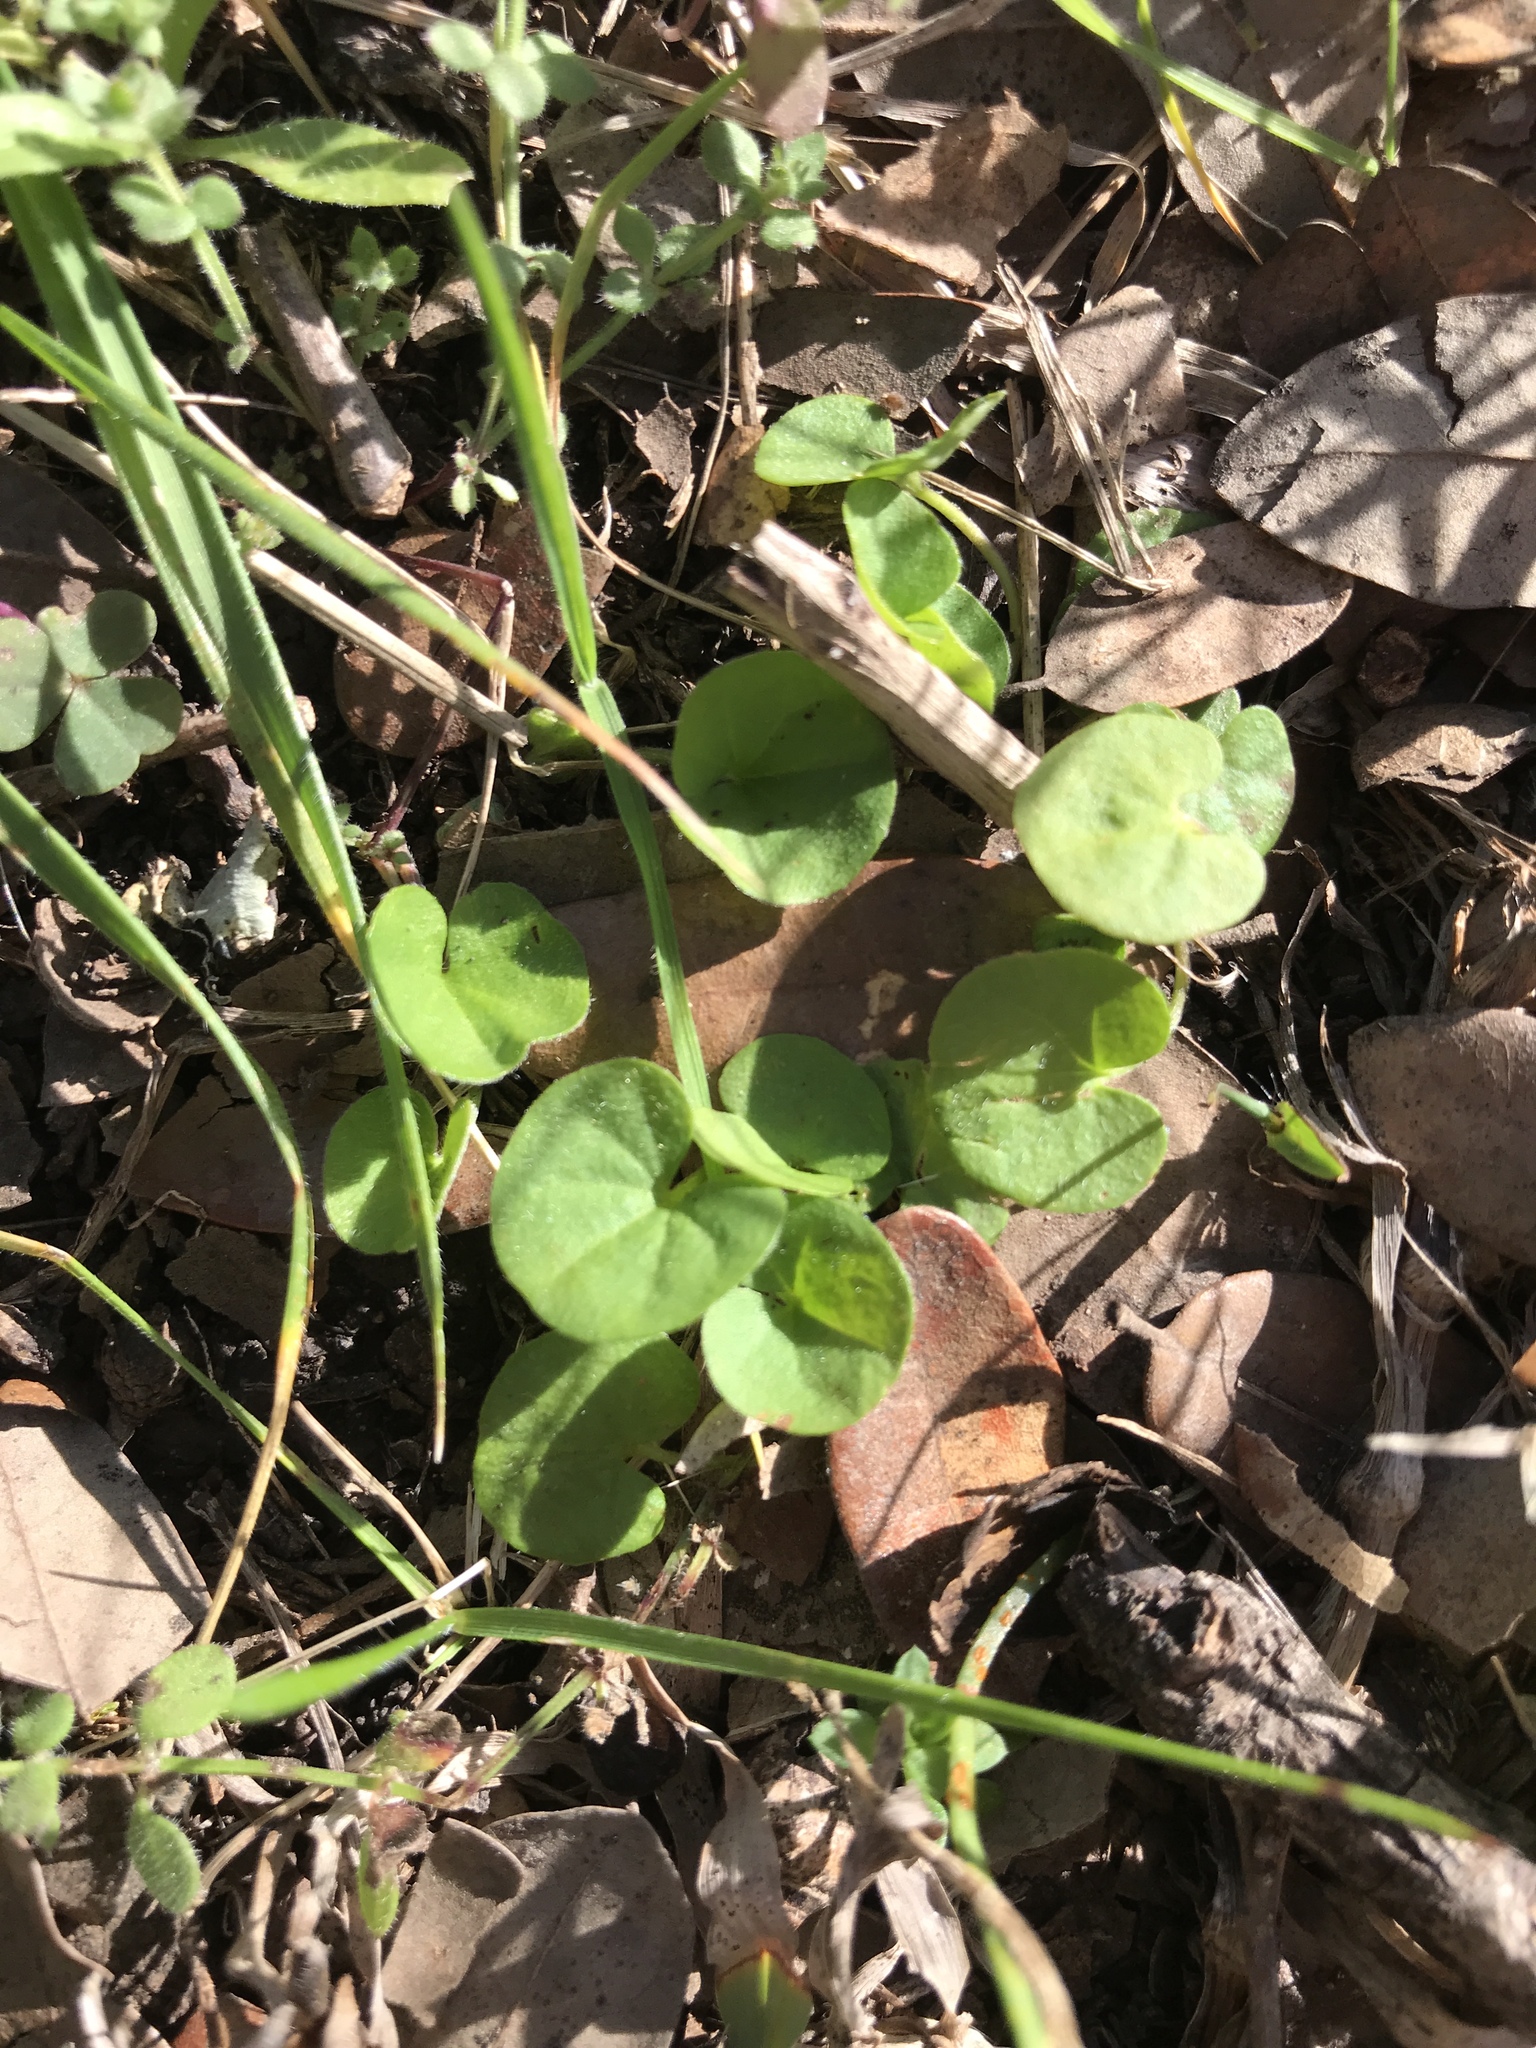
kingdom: Plantae
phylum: Tracheophyta
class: Magnoliopsida
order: Solanales
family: Convolvulaceae
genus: Dichondra
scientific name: Dichondra carolinensis
